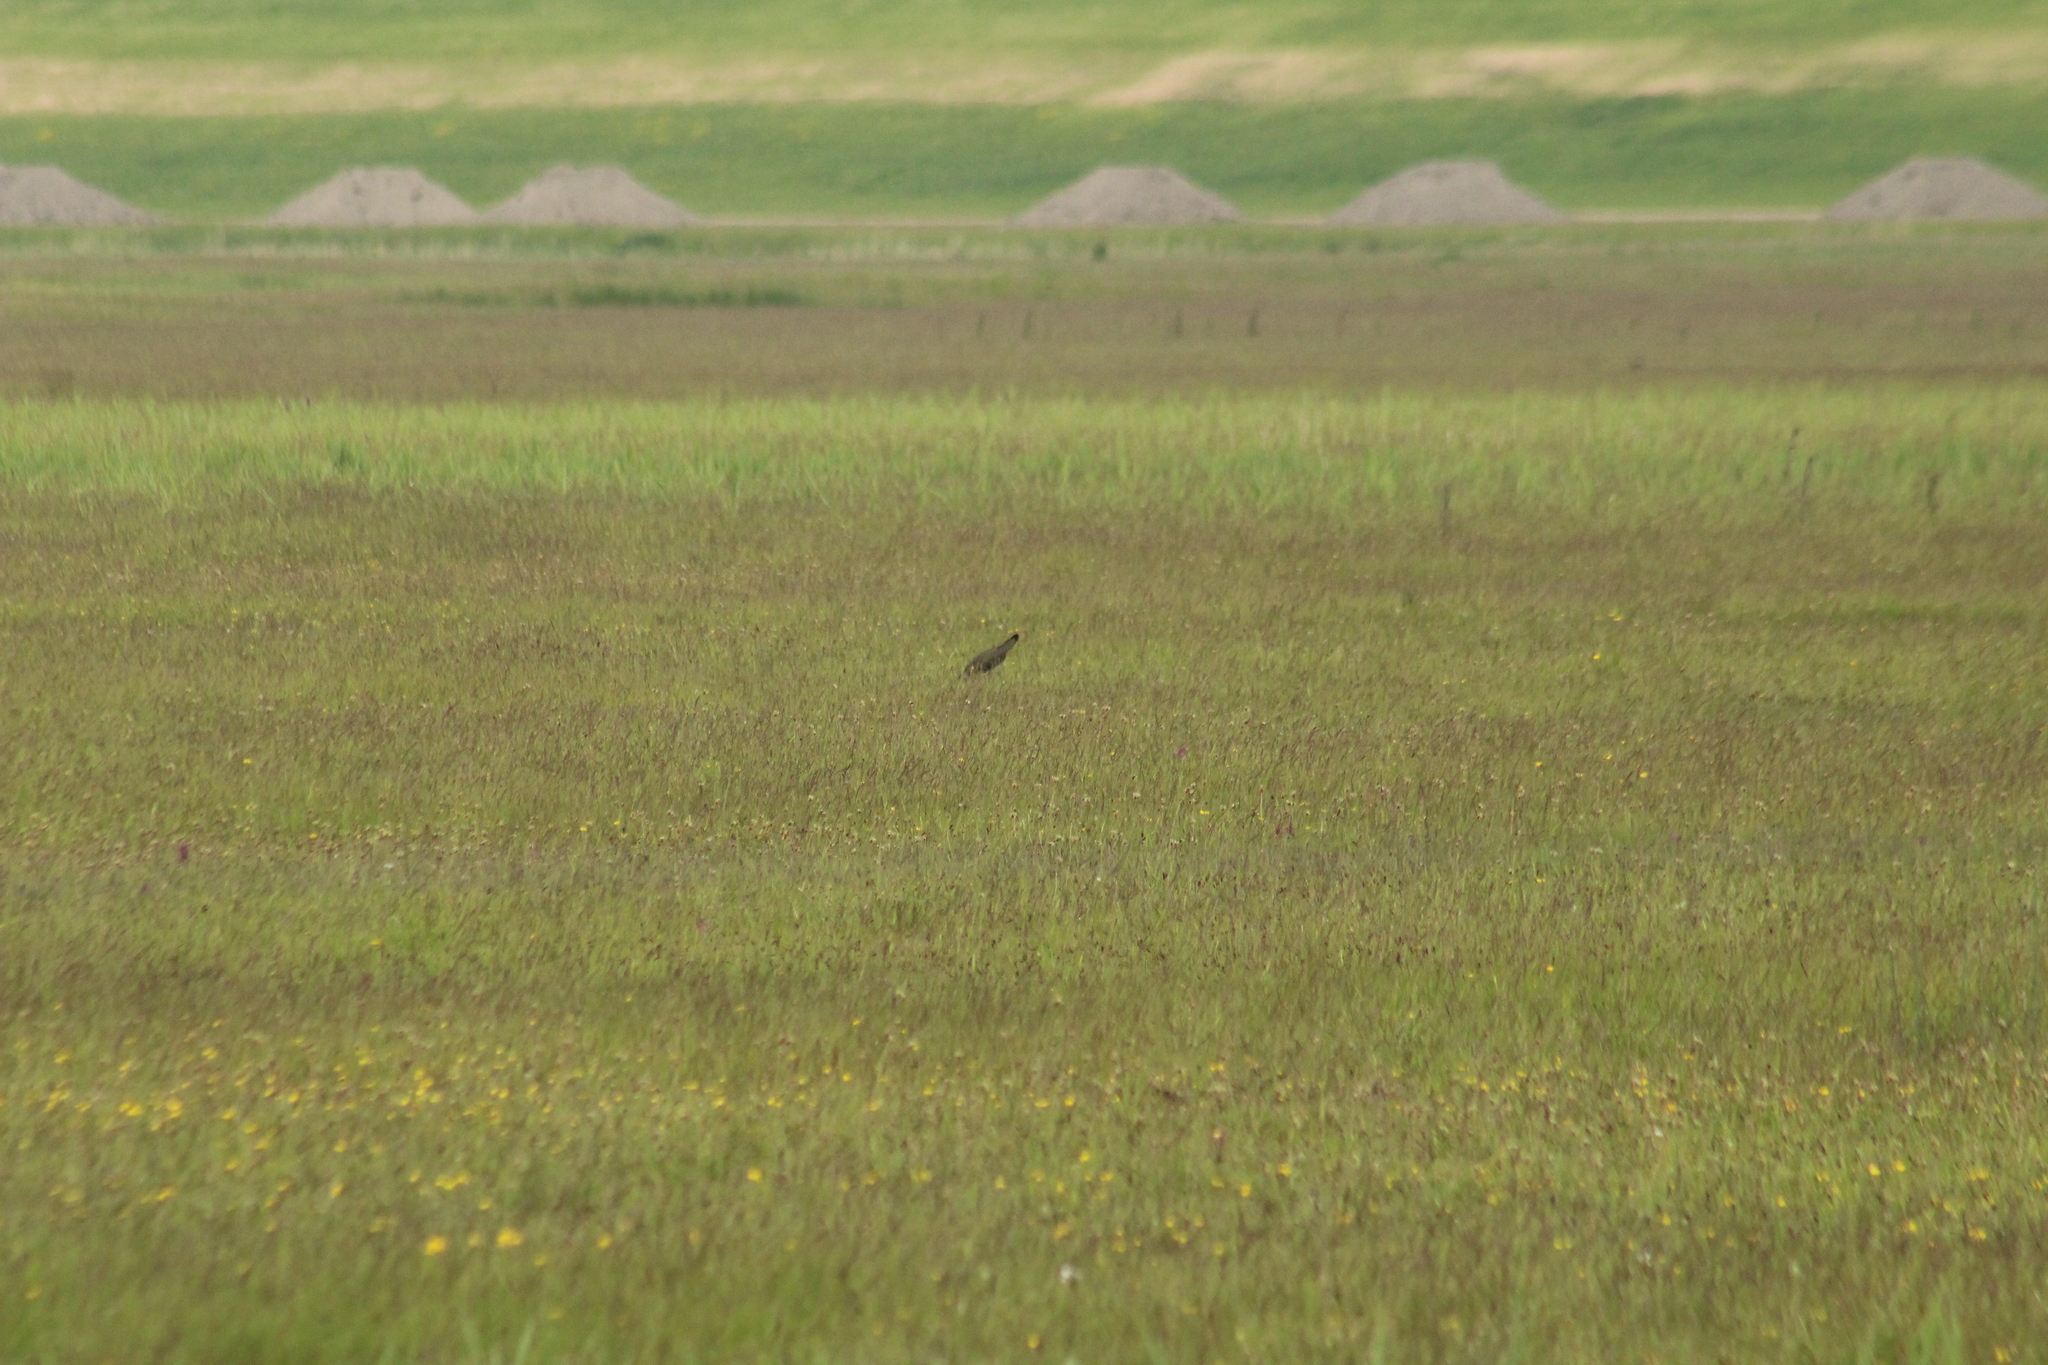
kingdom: Animalia
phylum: Chordata
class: Aves
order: Charadriiformes
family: Charadriidae
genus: Vanellus
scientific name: Vanellus vanellus
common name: Northern lapwing
